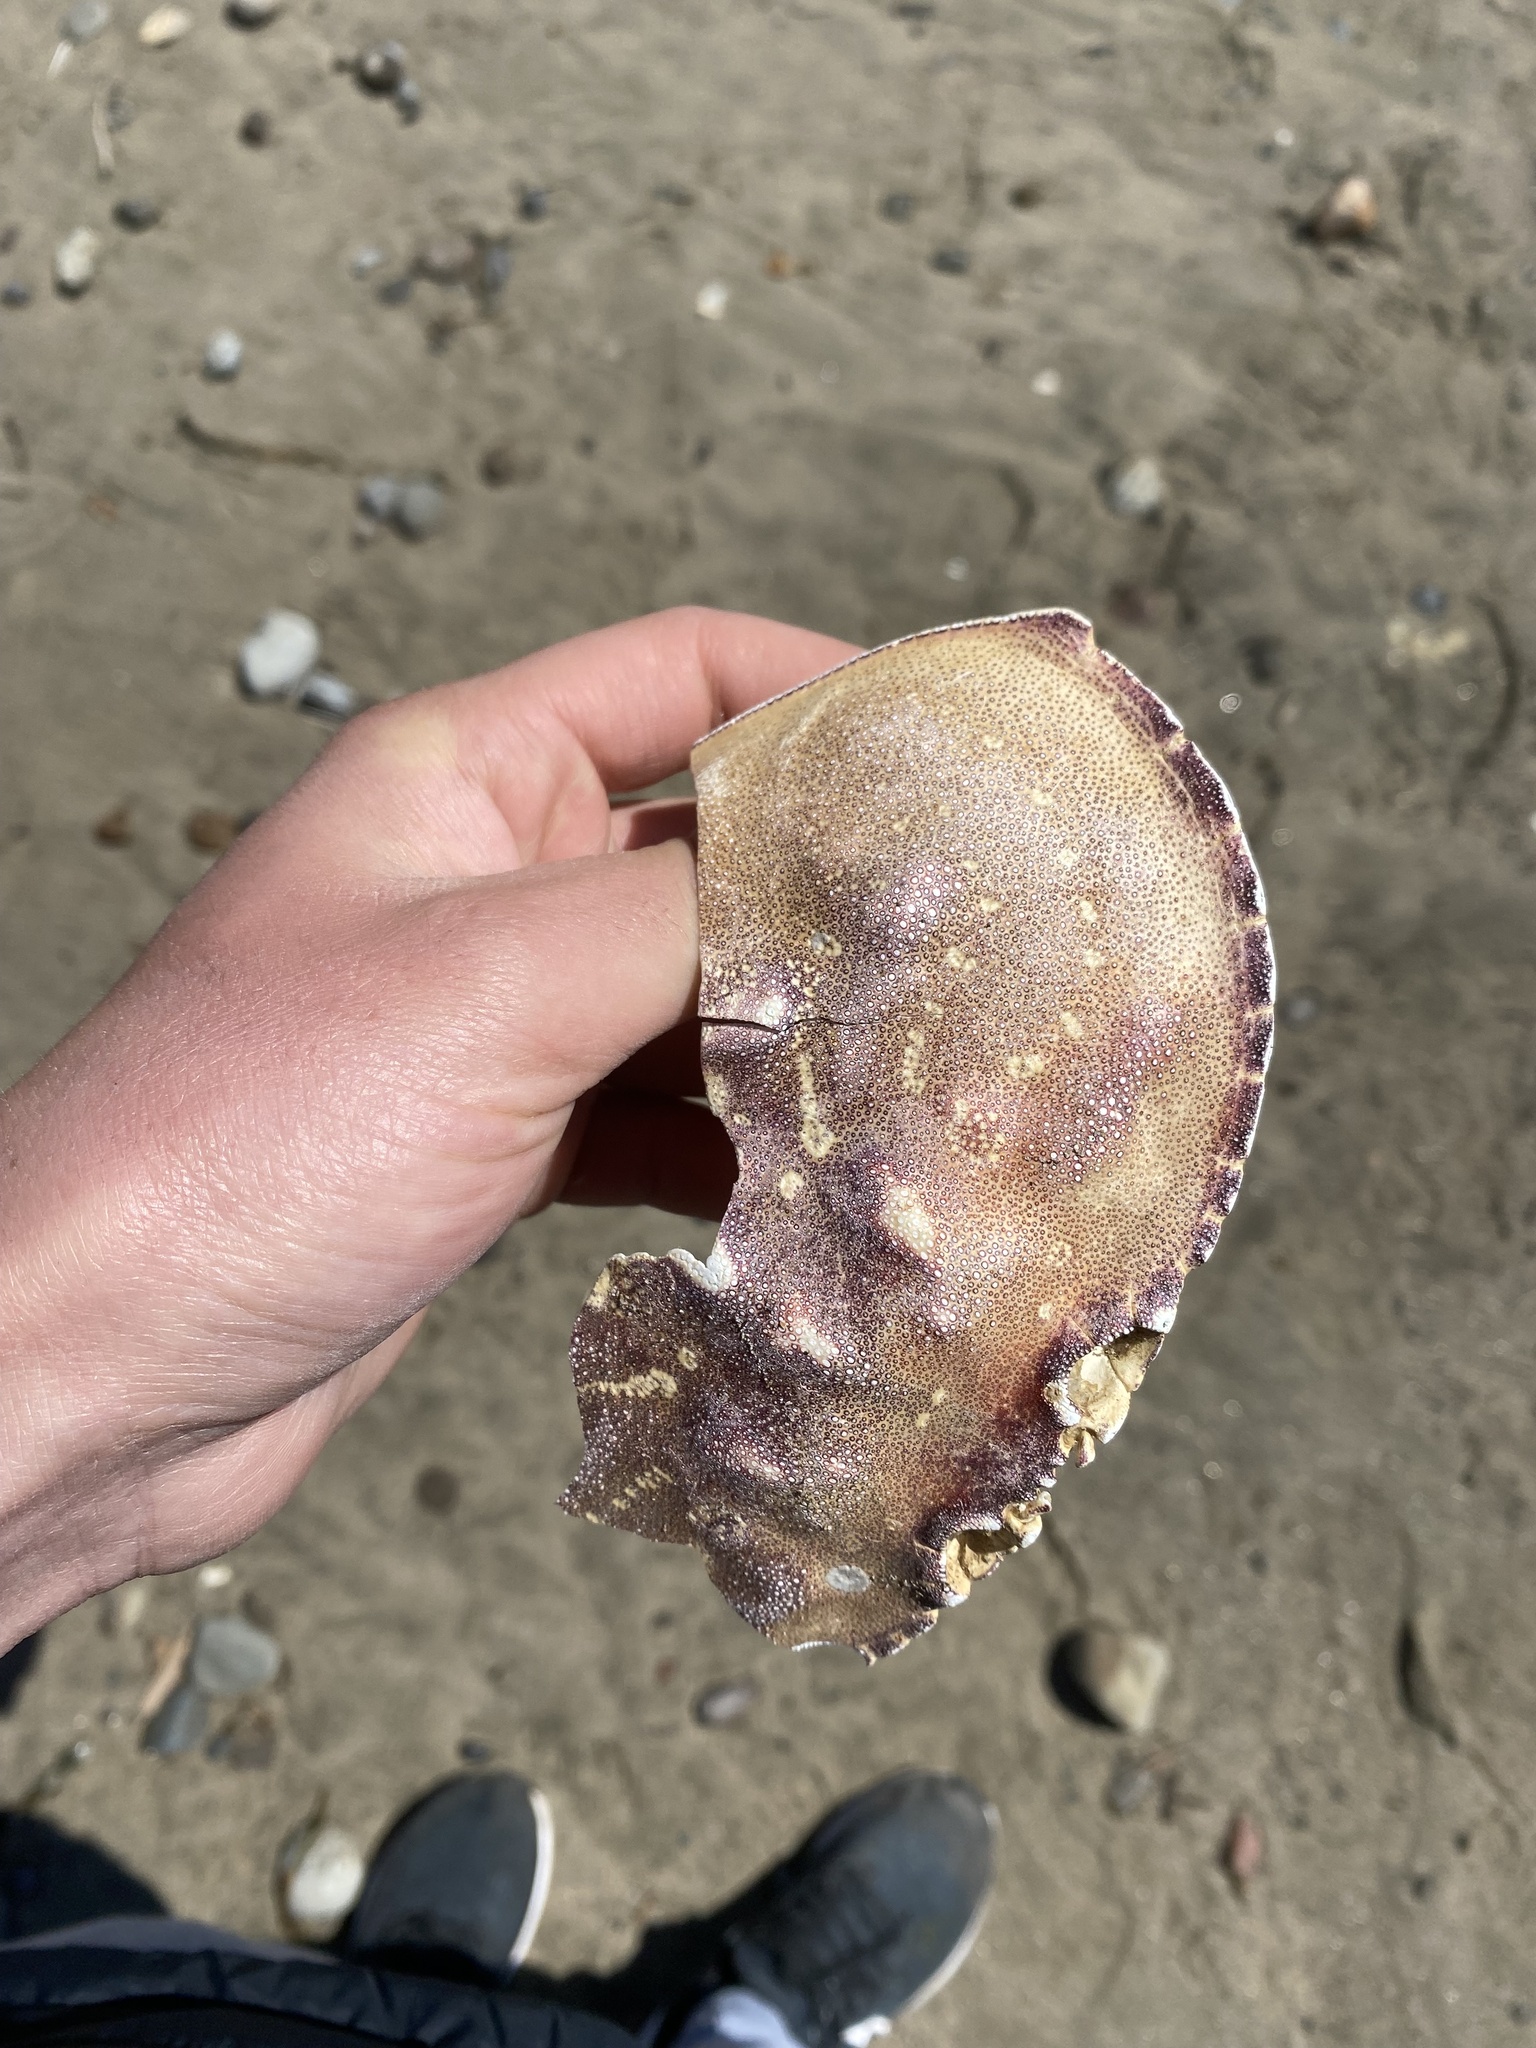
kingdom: Animalia
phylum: Arthropoda
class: Malacostraca
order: Decapoda
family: Cancridae
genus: Metacarcinus
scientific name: Metacarcinus magister
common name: Californian crab
